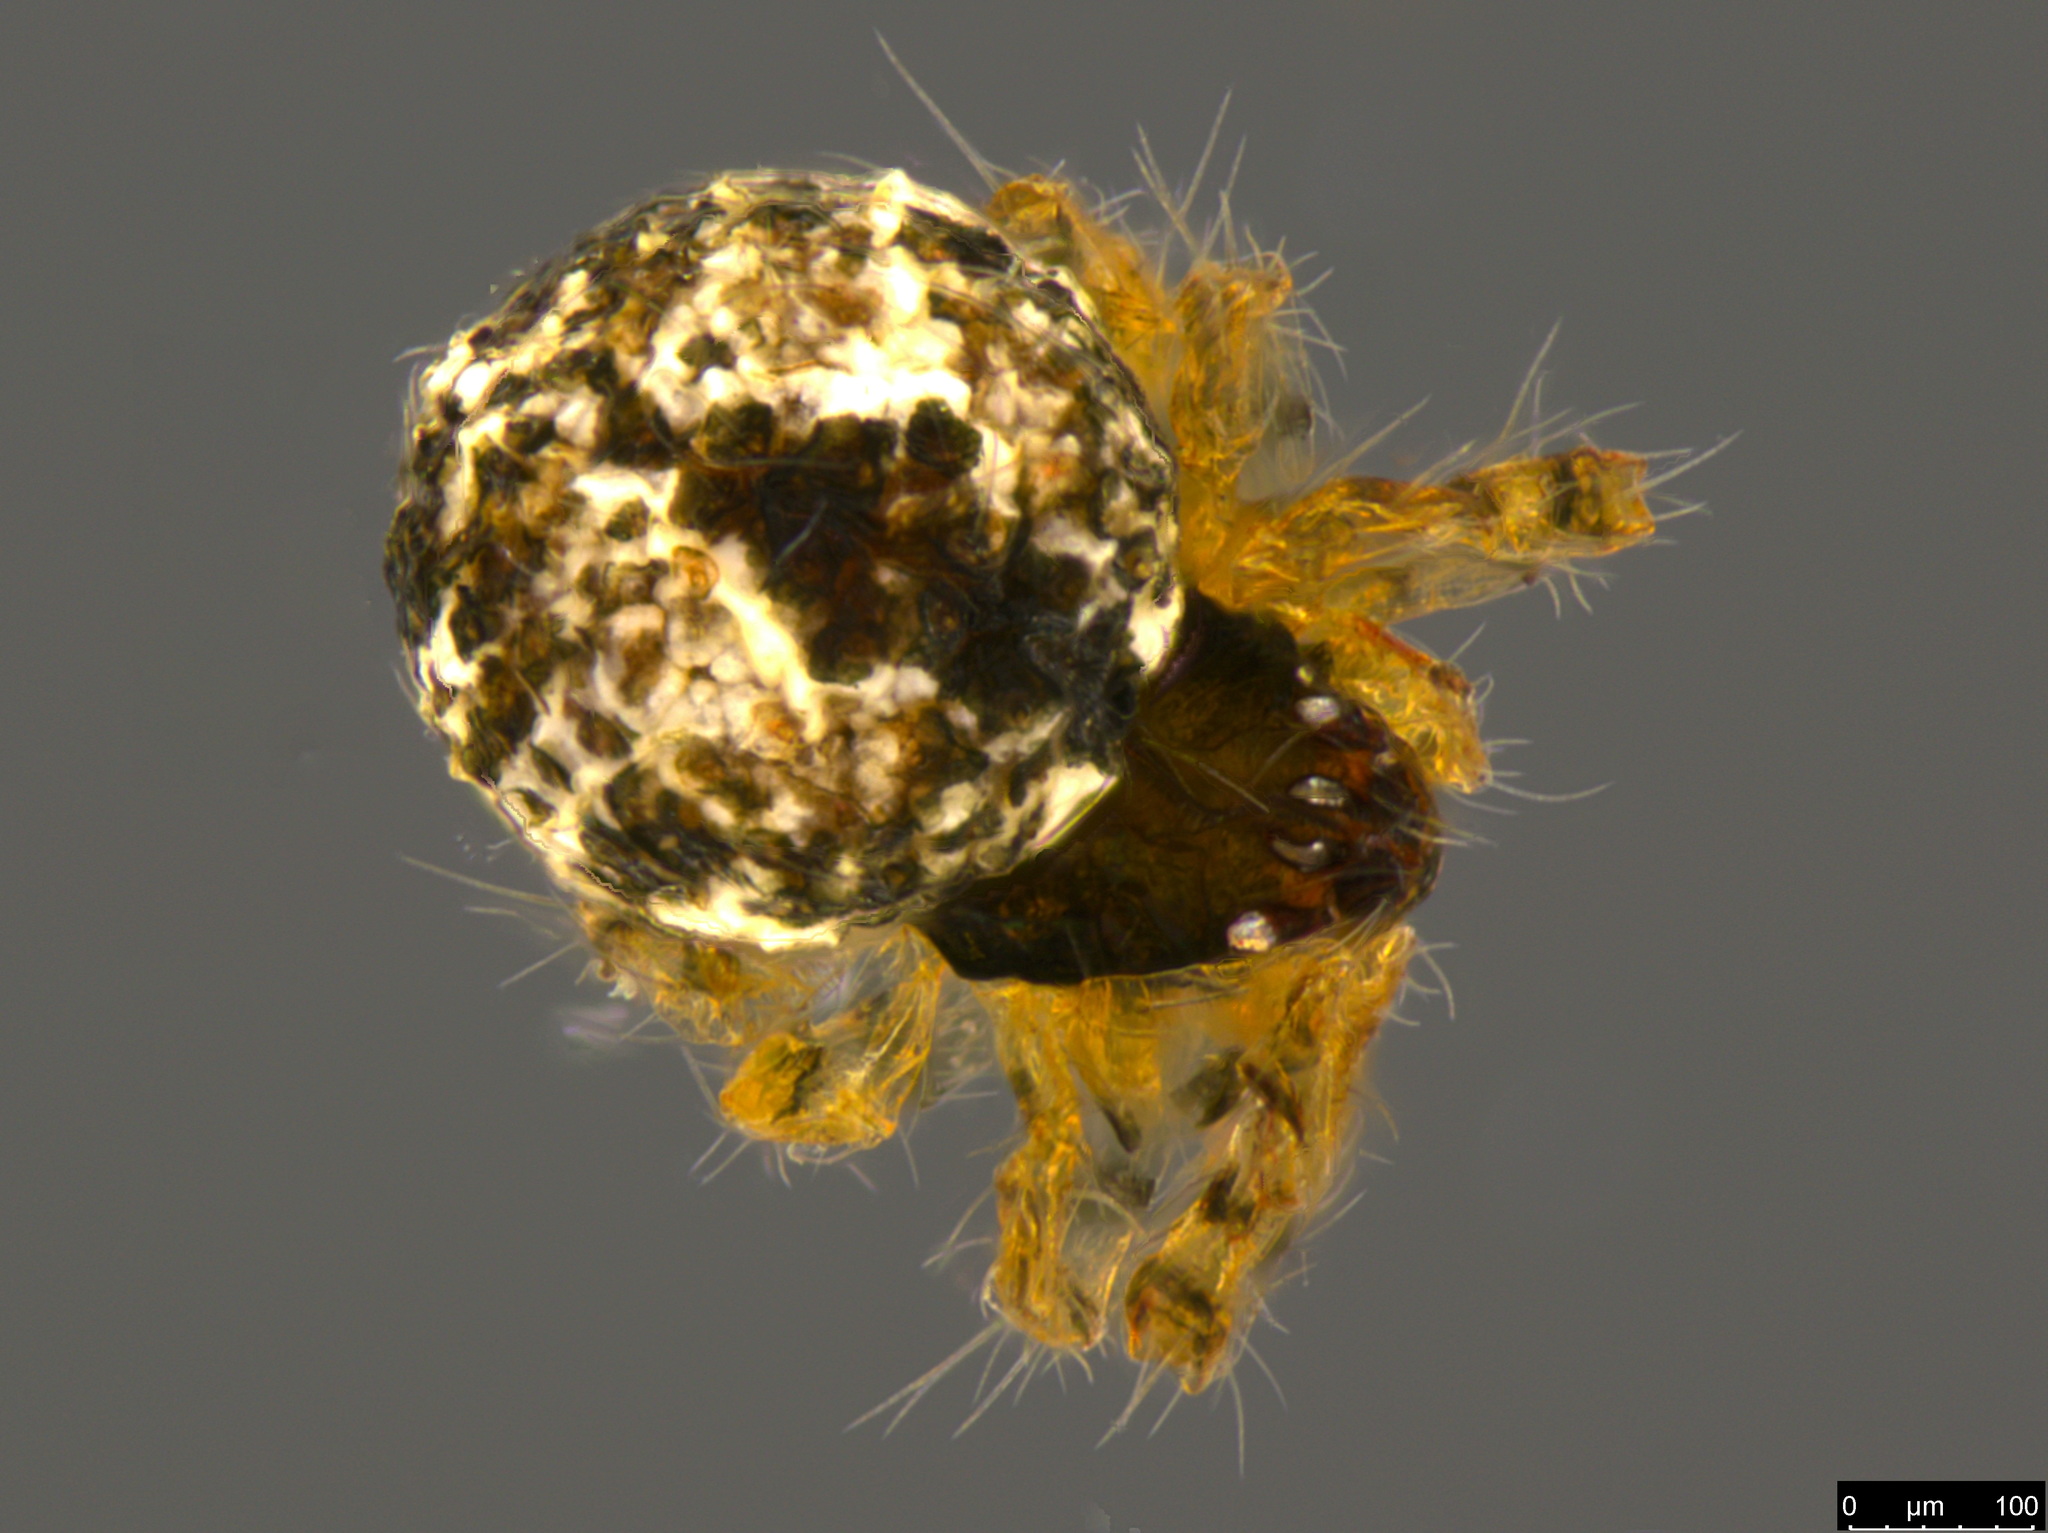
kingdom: Animalia
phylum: Arthropoda
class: Arachnida
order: Araneae
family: Theridiidae
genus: Cryptachaea
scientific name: Cryptachaea veruculata
